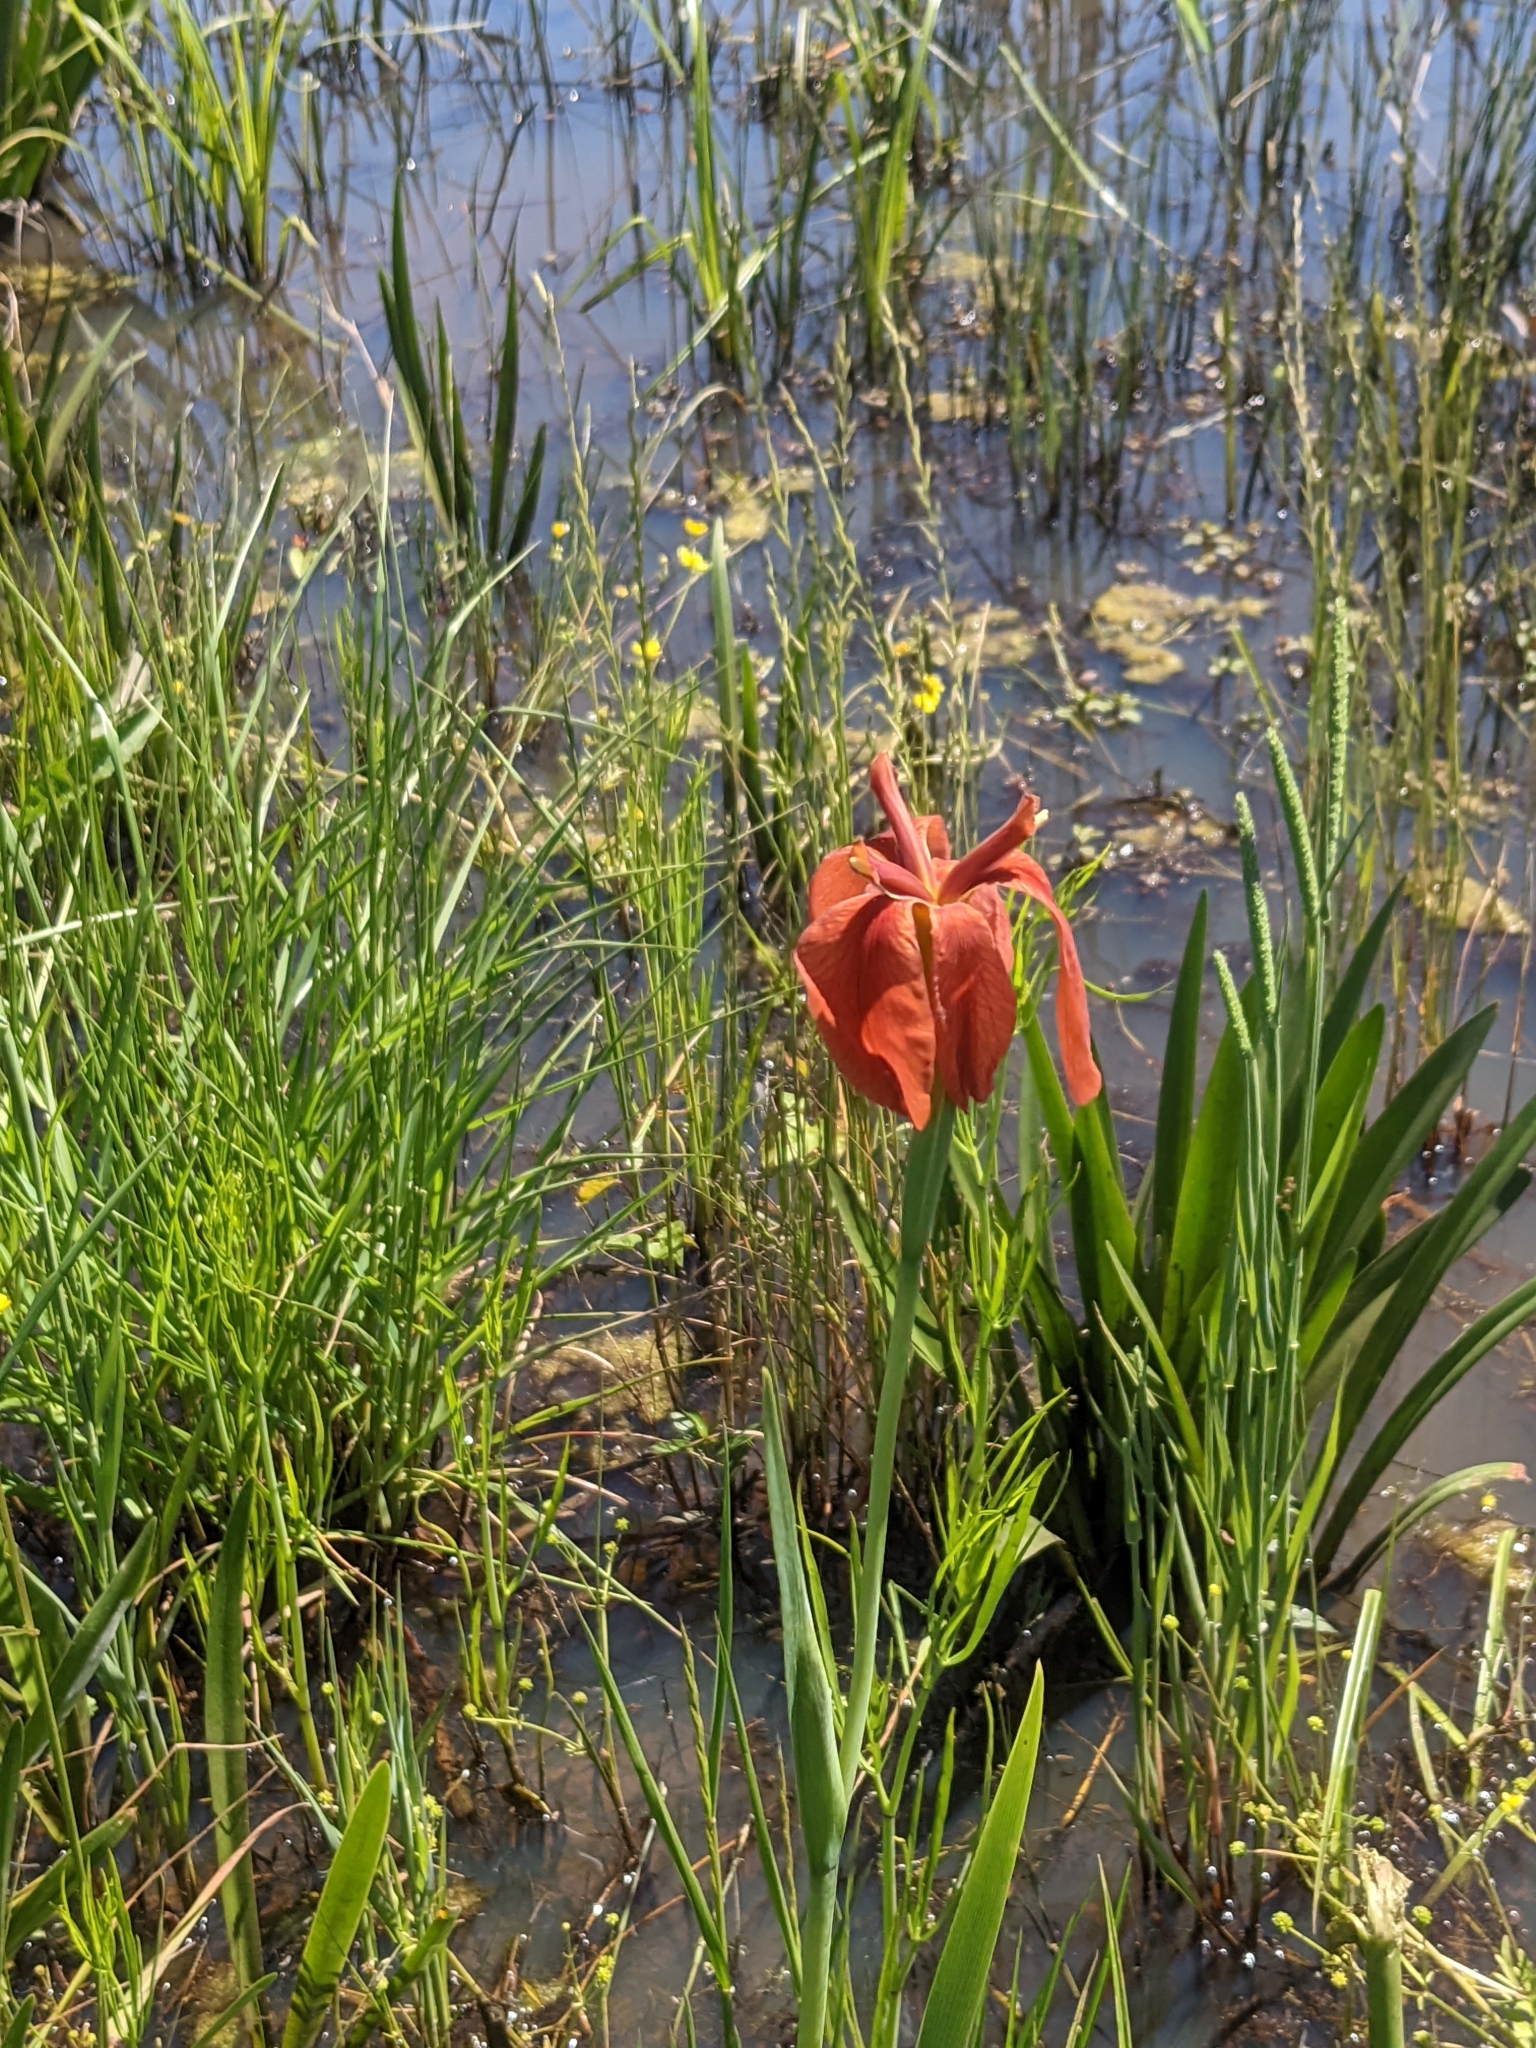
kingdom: Plantae
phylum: Tracheophyta
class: Liliopsida
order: Asparagales
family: Iridaceae
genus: Iris
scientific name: Iris fulva
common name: Copper iris
